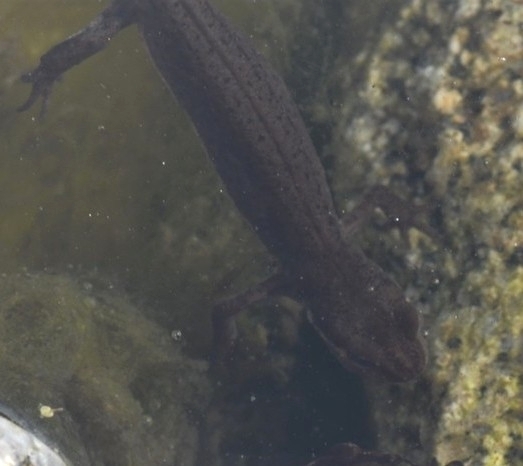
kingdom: Animalia
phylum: Chordata
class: Amphibia
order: Caudata
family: Salamandridae
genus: Lissotriton
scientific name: Lissotriton vulgaris
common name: Smooth newt
